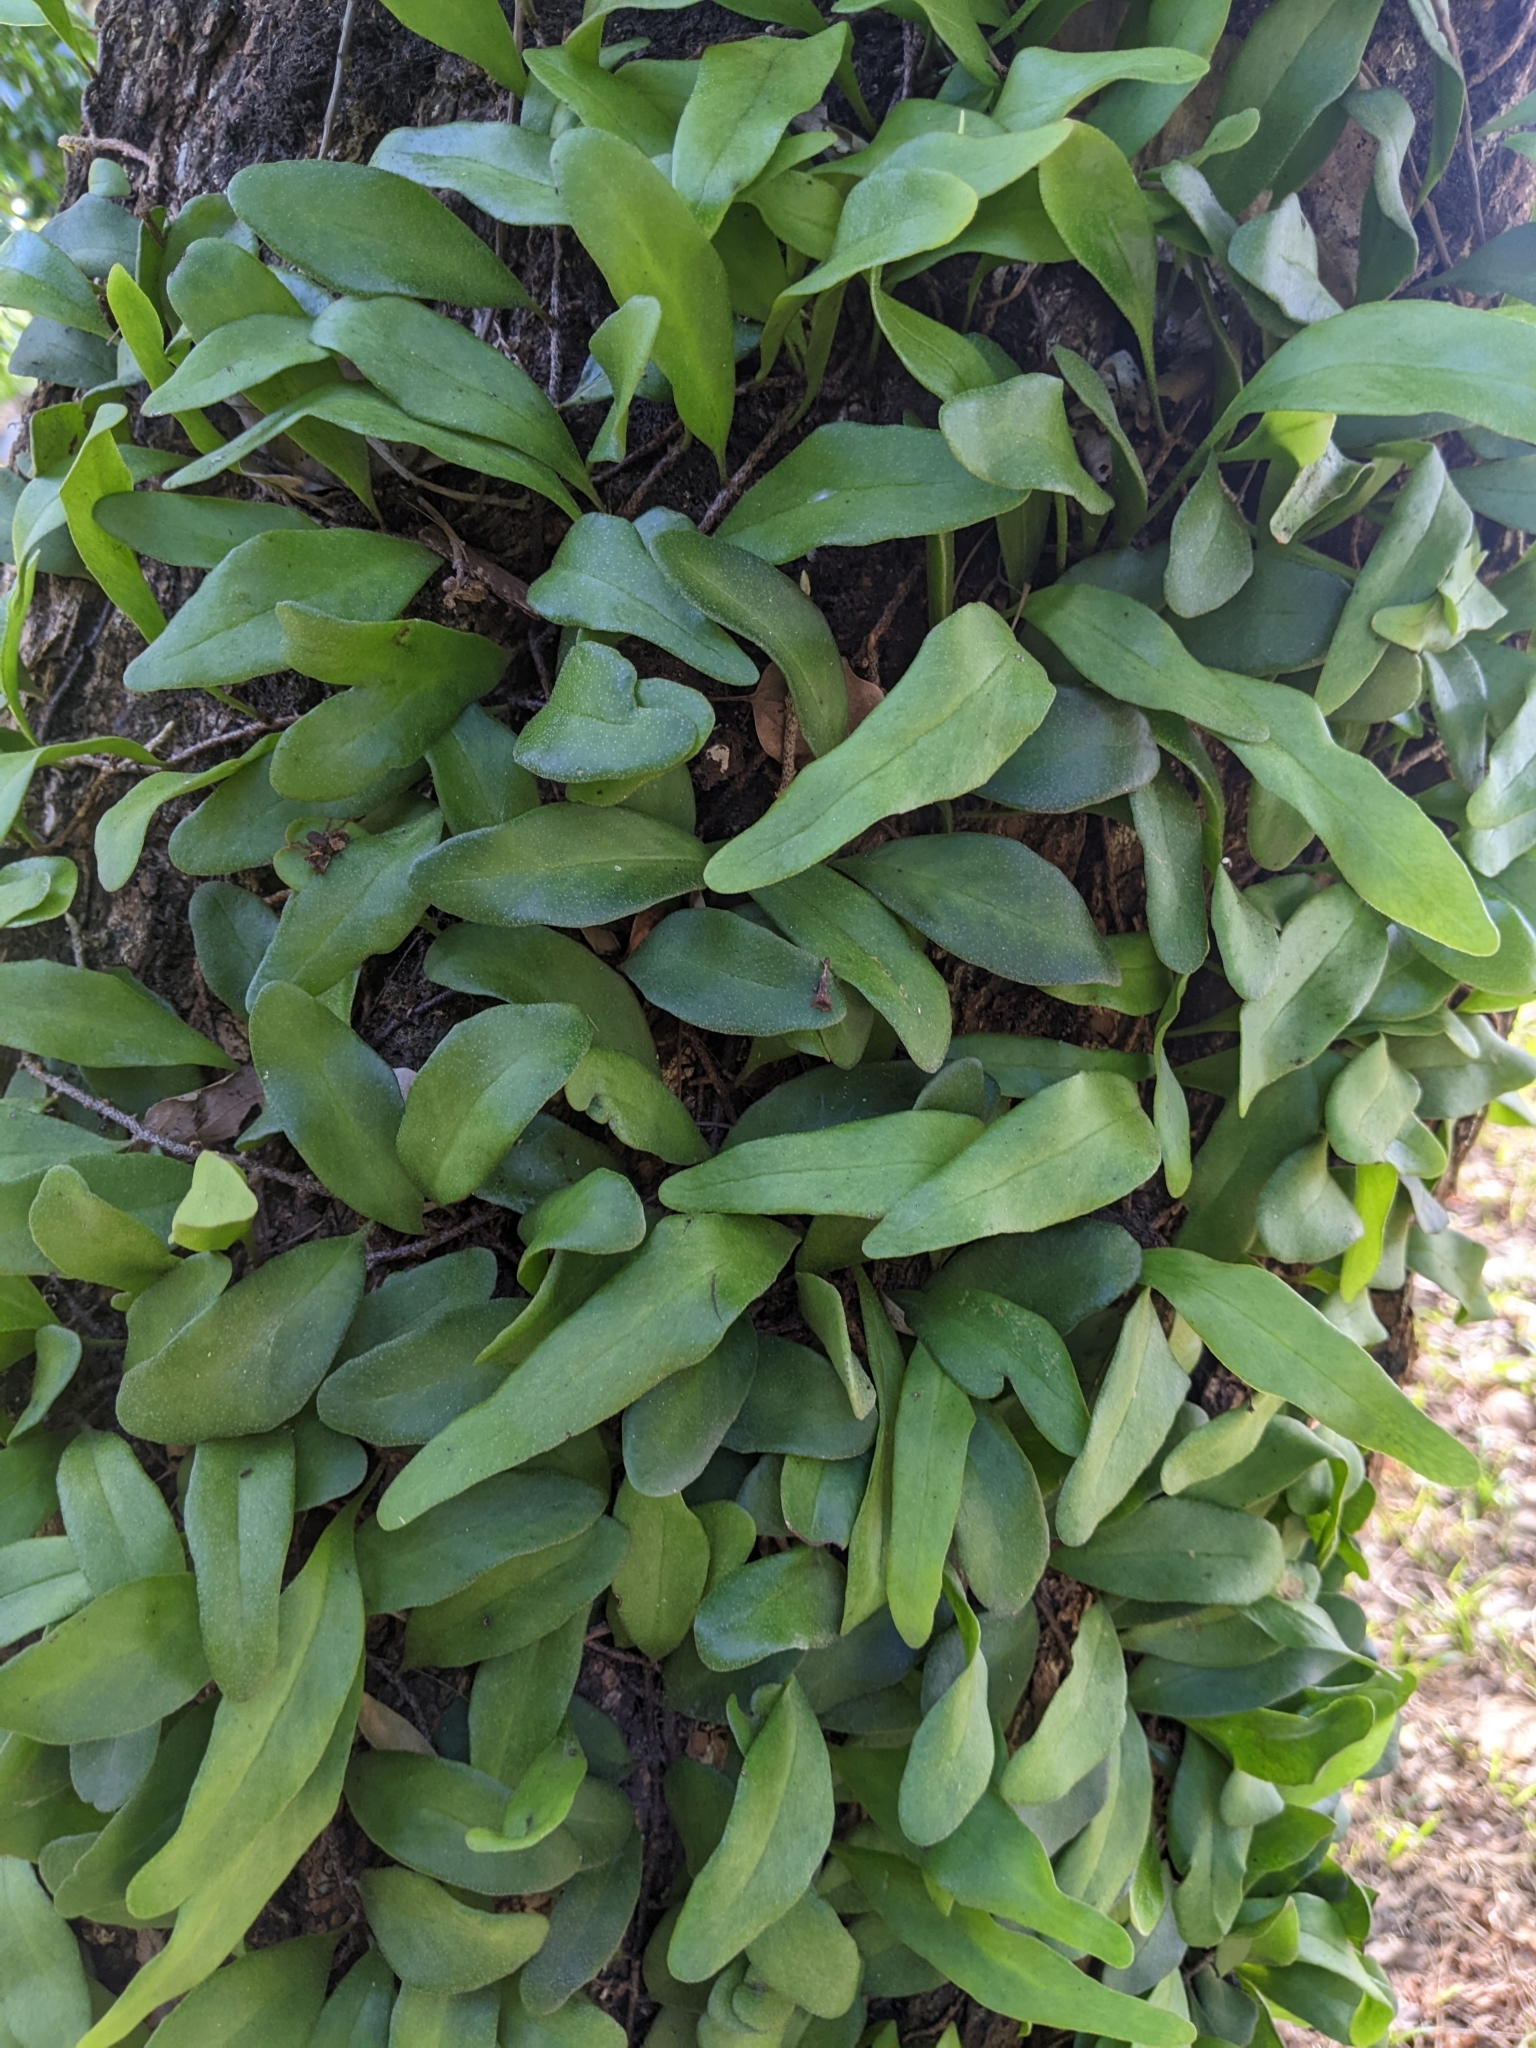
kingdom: Plantae
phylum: Tracheophyta
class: Polypodiopsida
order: Polypodiales
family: Polypodiaceae
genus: Pyrrosia
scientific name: Pyrrosia lanceolata
